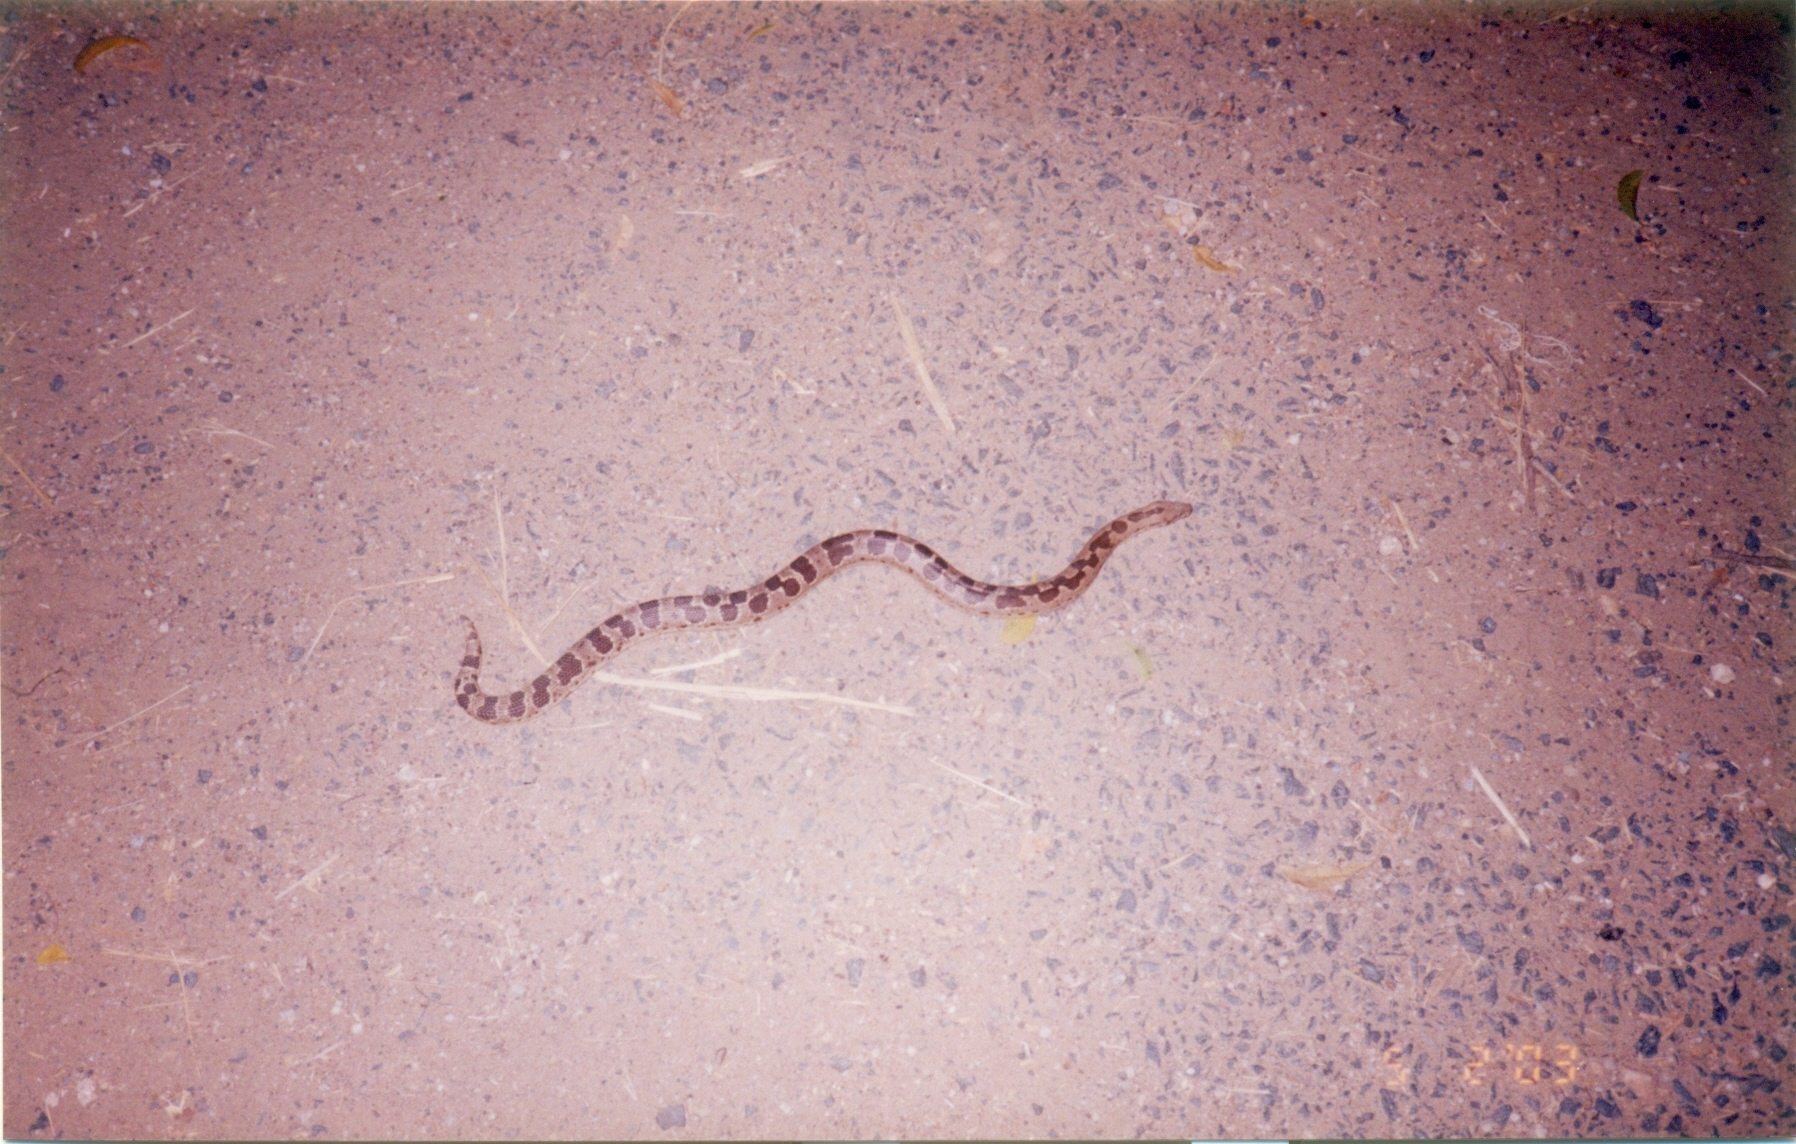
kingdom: Animalia
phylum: Chordata
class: Squamata
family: Boidae
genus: Eryx
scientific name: Eryx conicus
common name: Rough-tailed sand boa
